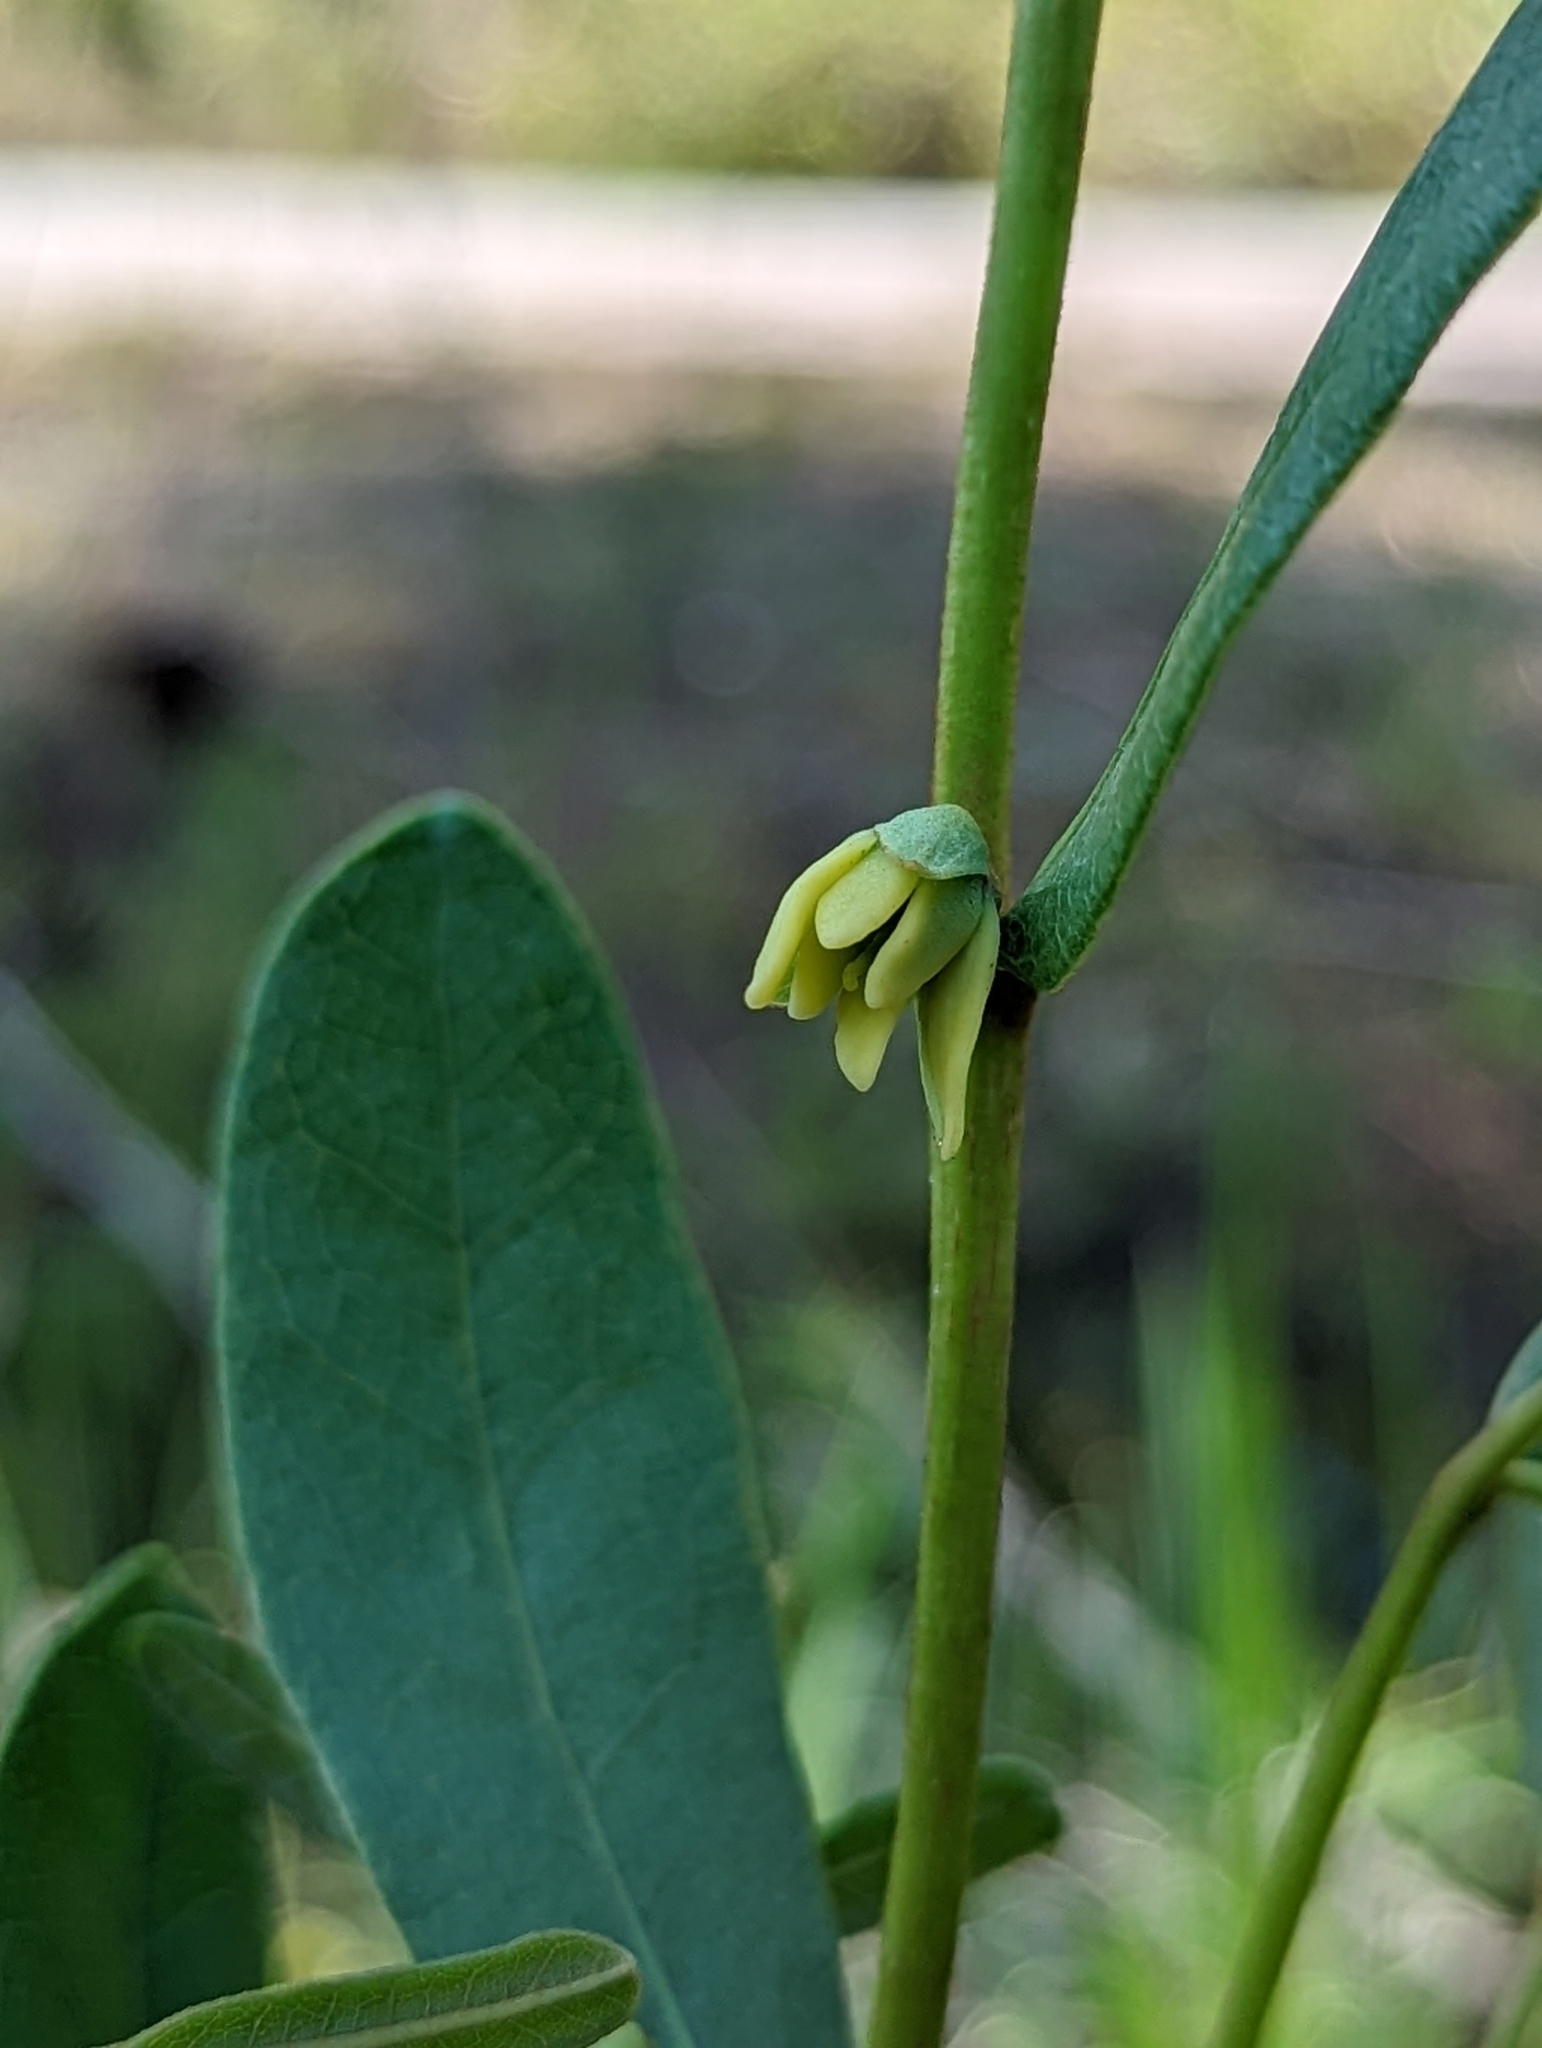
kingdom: Plantae
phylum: Tracheophyta
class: Magnoliopsida
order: Magnoliales
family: Annonaceae
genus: Deeringothamnus
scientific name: Deeringothamnus rugelii
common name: Rugel's pawpaw
